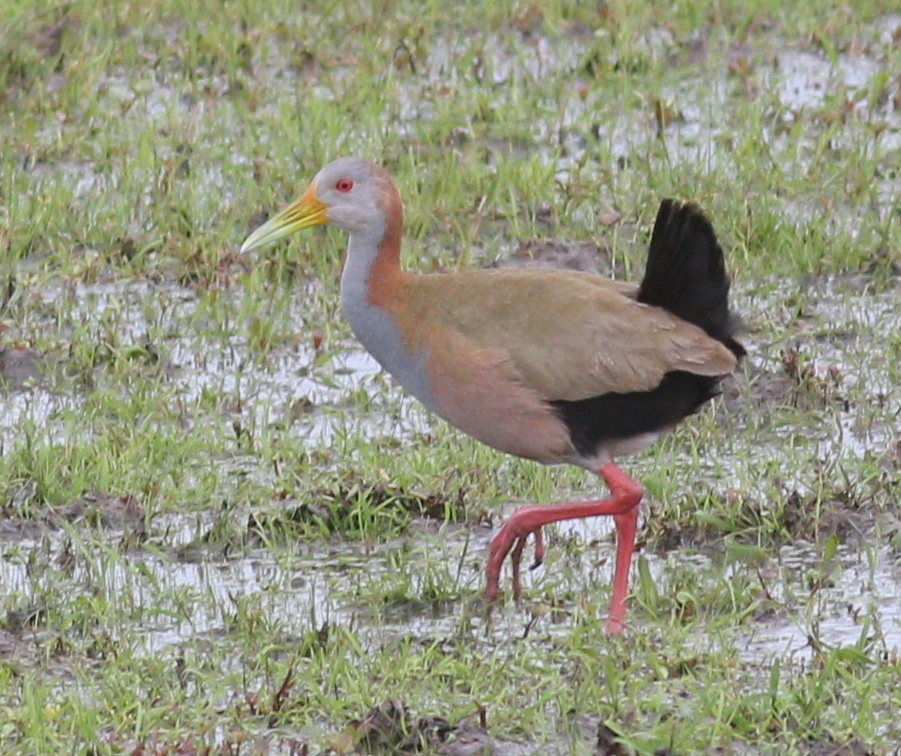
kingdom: Animalia
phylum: Chordata
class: Aves
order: Gruiformes
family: Rallidae
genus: Aramides
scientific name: Aramides ypecaha
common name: Giant wood rail
